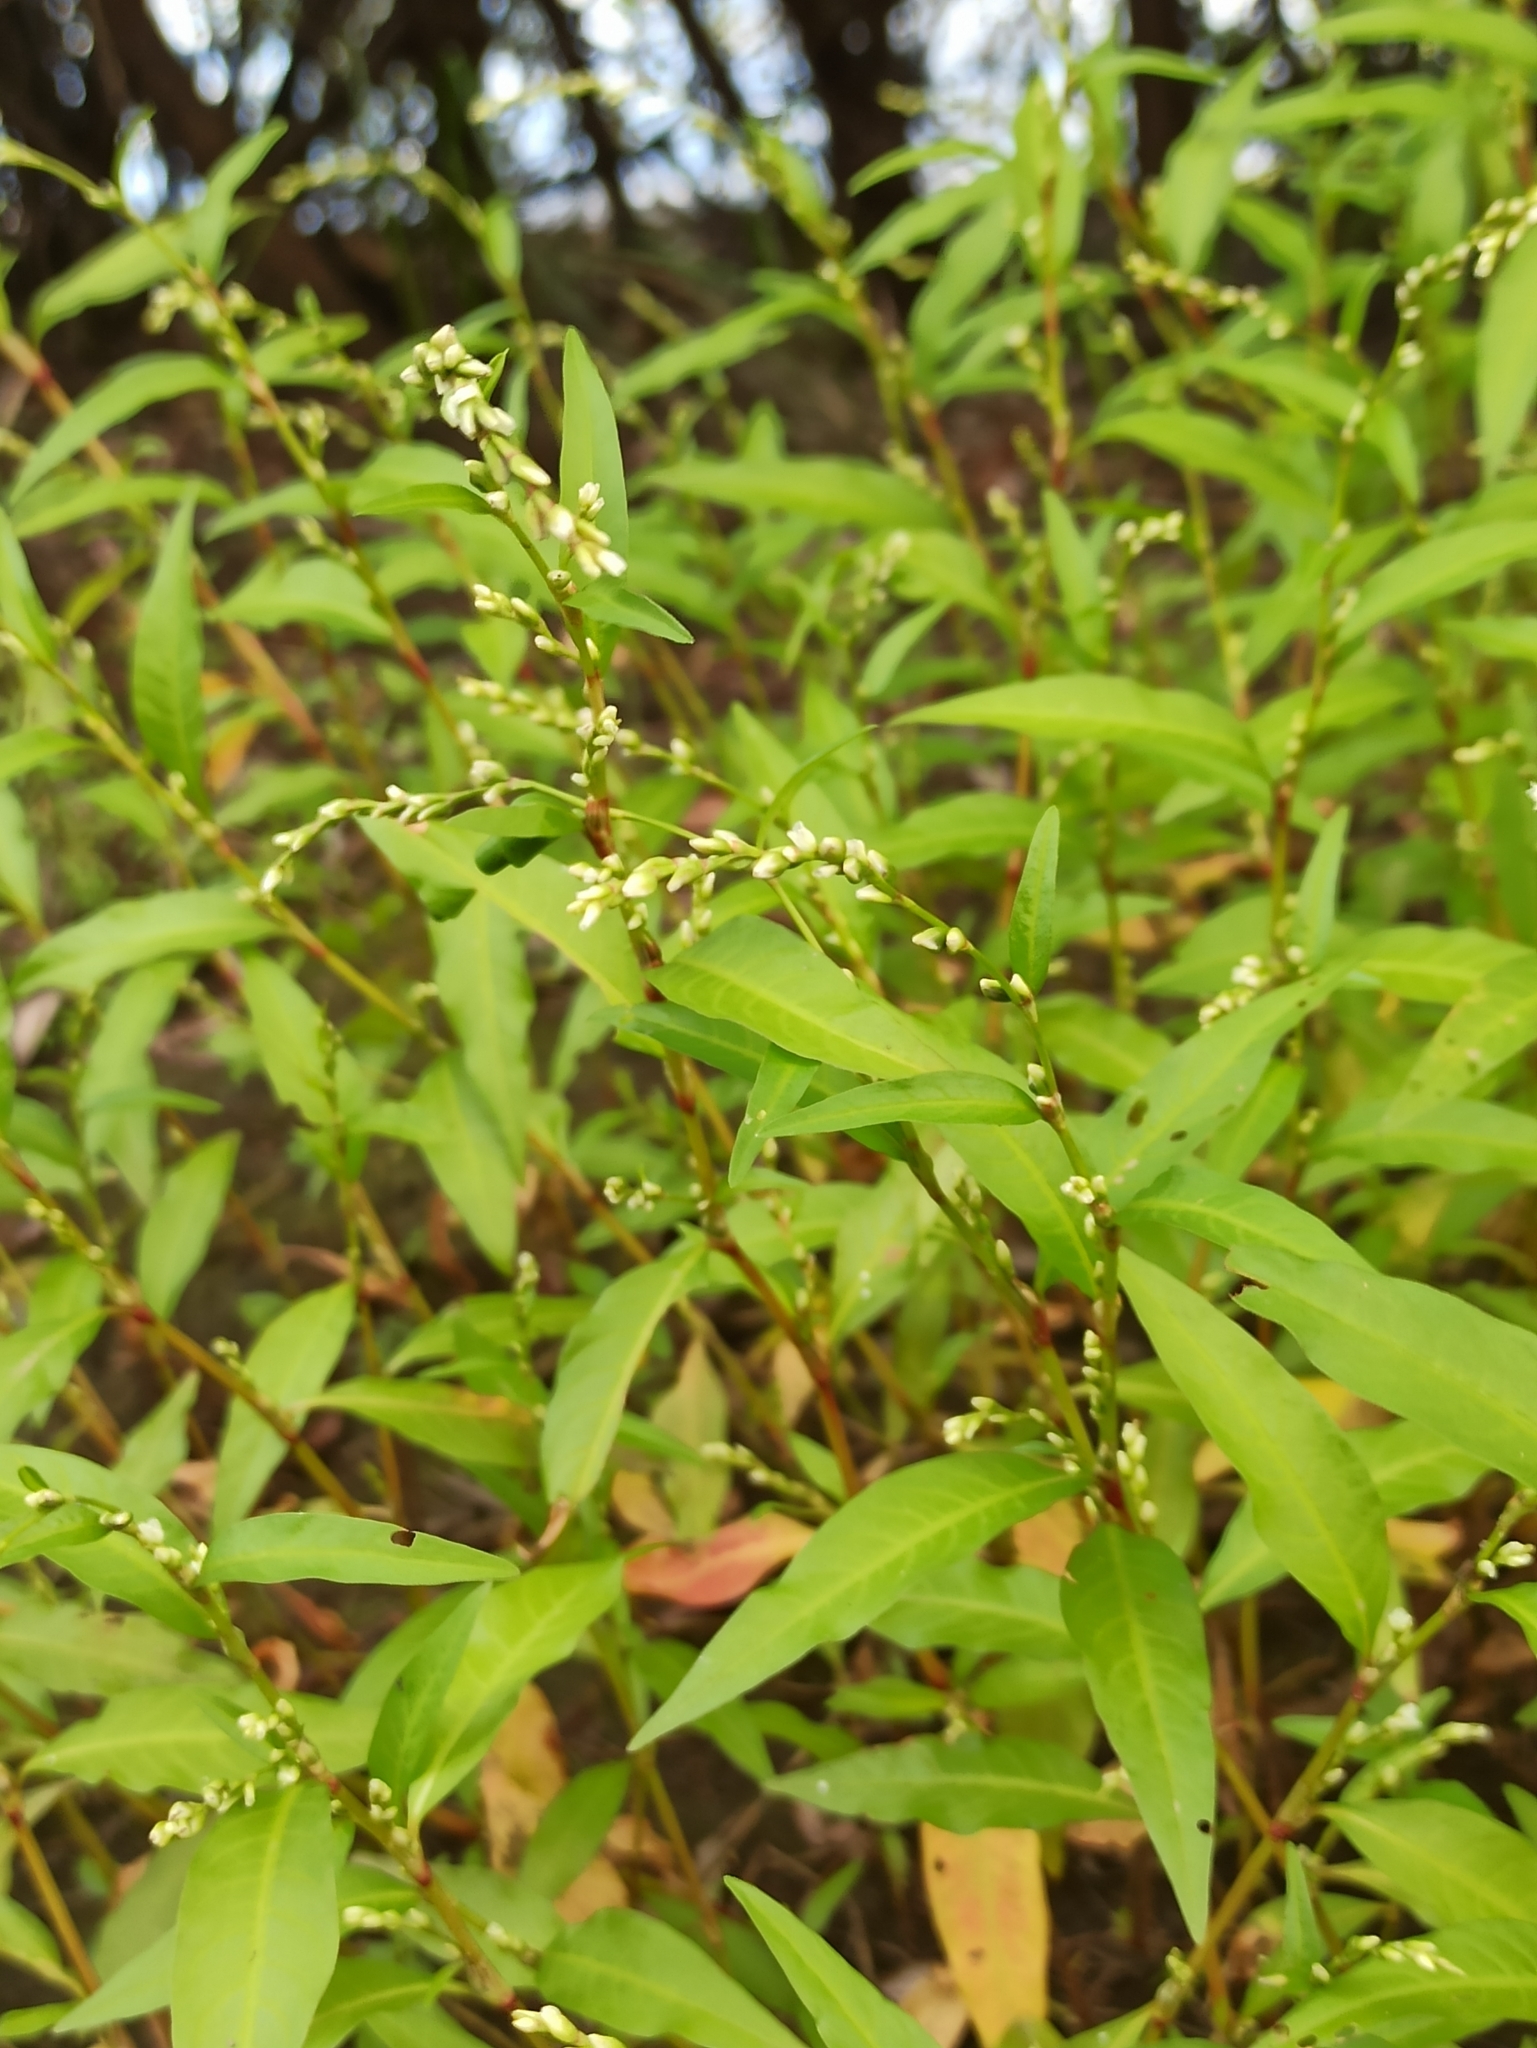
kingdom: Plantae
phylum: Tracheophyta
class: Magnoliopsida
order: Caryophyllales
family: Polygonaceae
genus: Persicaria
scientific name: Persicaria hydropiper
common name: Water-pepper
